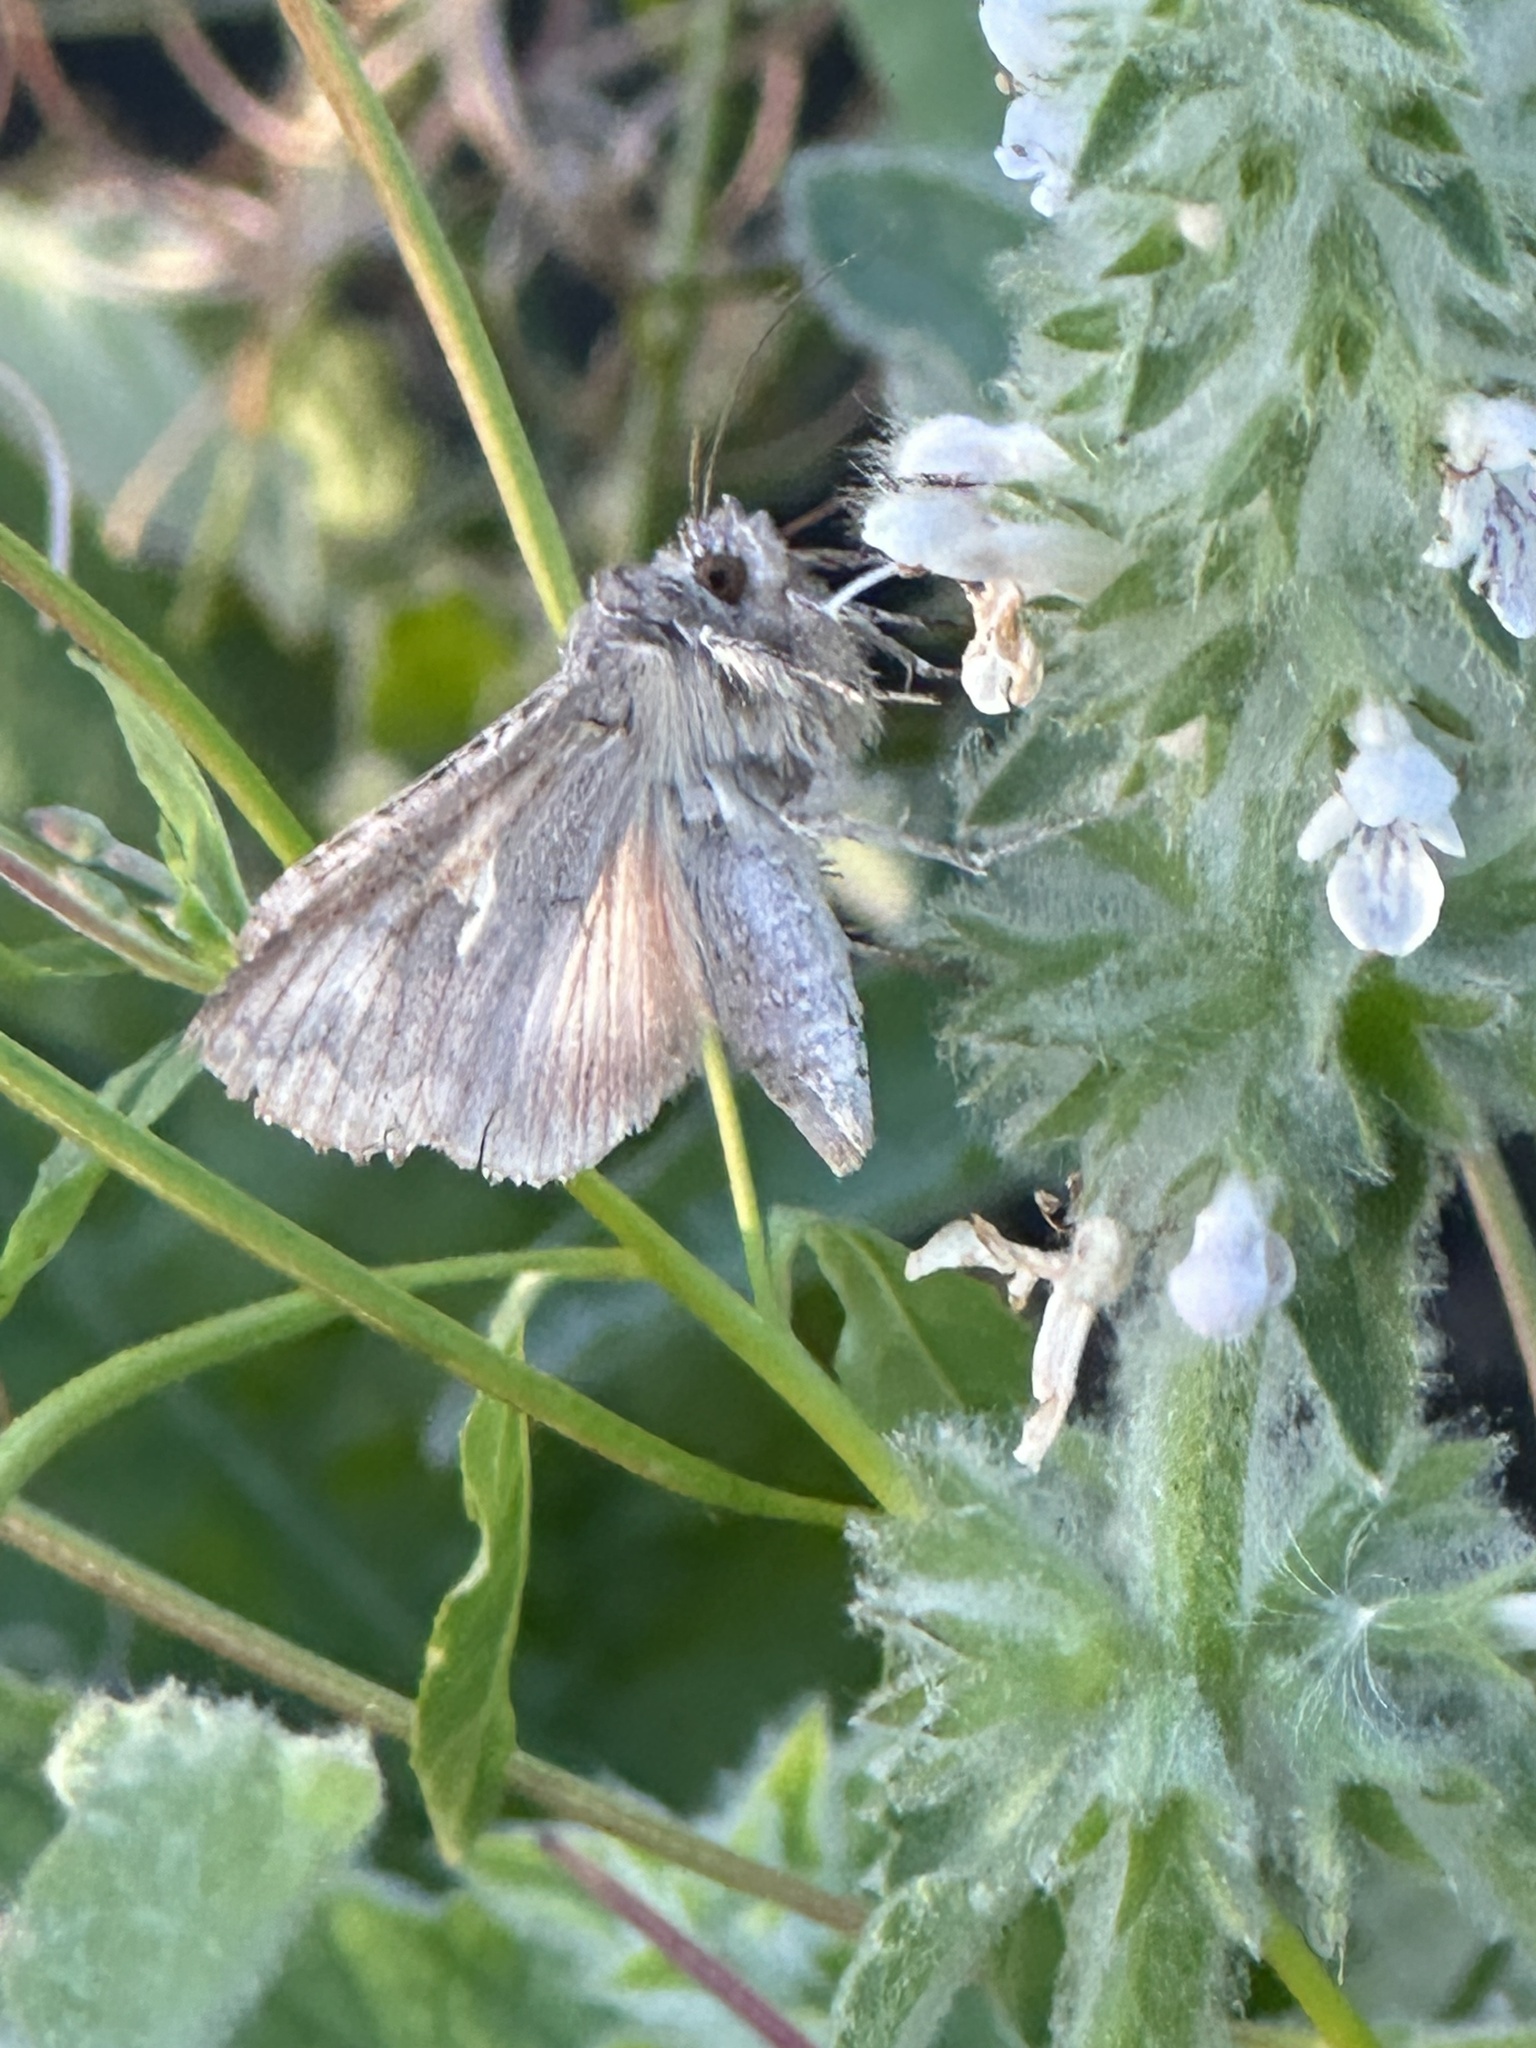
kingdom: Animalia
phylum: Arthropoda
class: Insecta
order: Lepidoptera
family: Noctuidae
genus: Autographa
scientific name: Autographa californica
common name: Alfalfa looper
